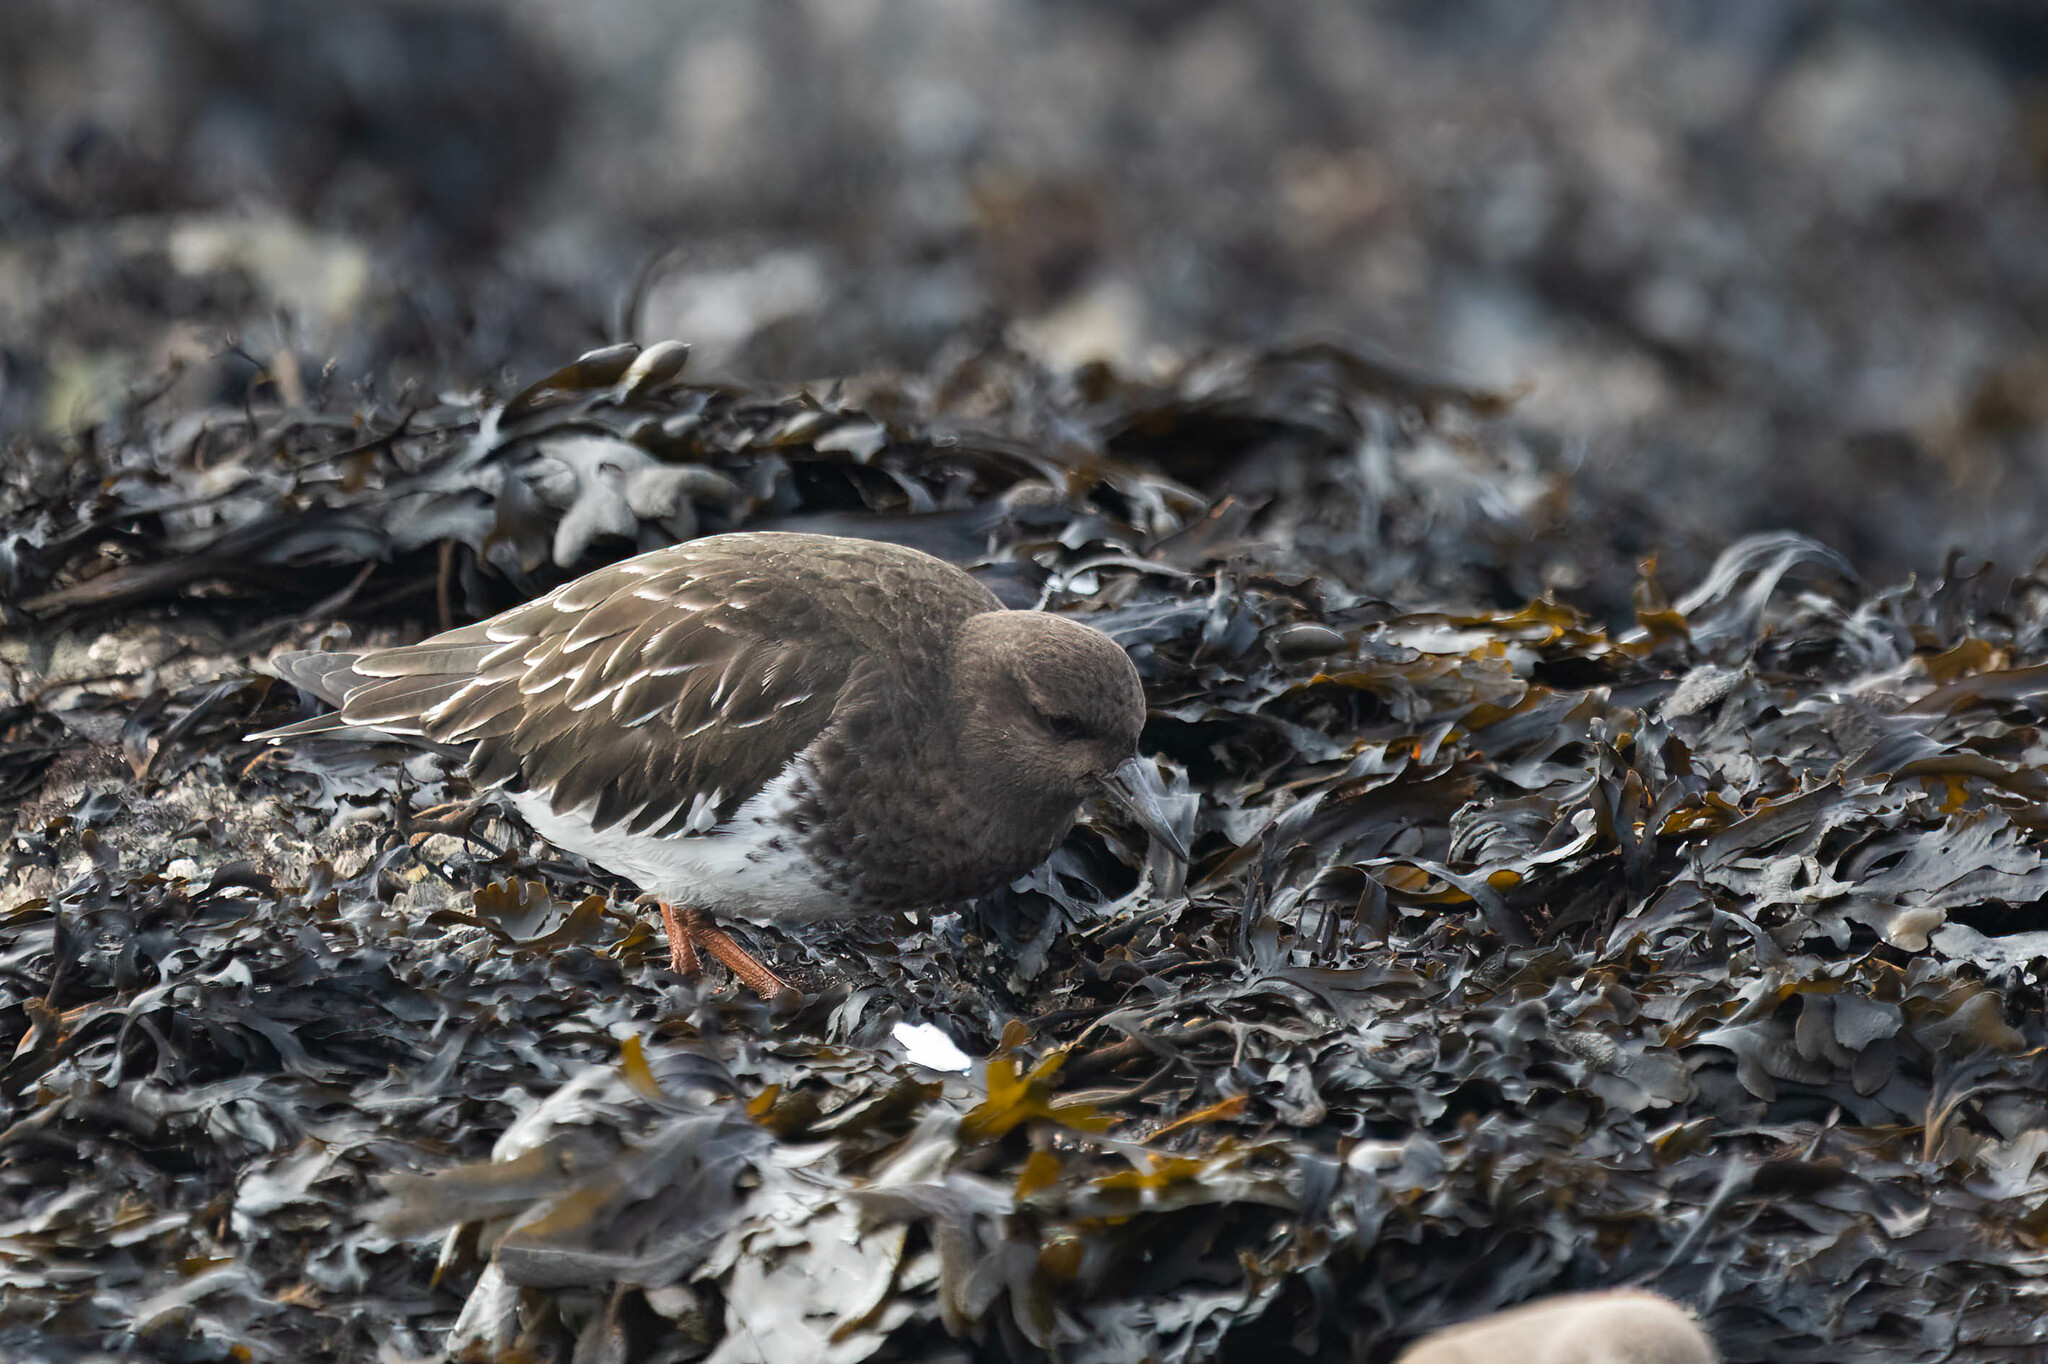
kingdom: Animalia
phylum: Chordata
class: Aves
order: Charadriiformes
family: Scolopacidae
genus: Arenaria
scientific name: Arenaria melanocephala
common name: Black turnstone
